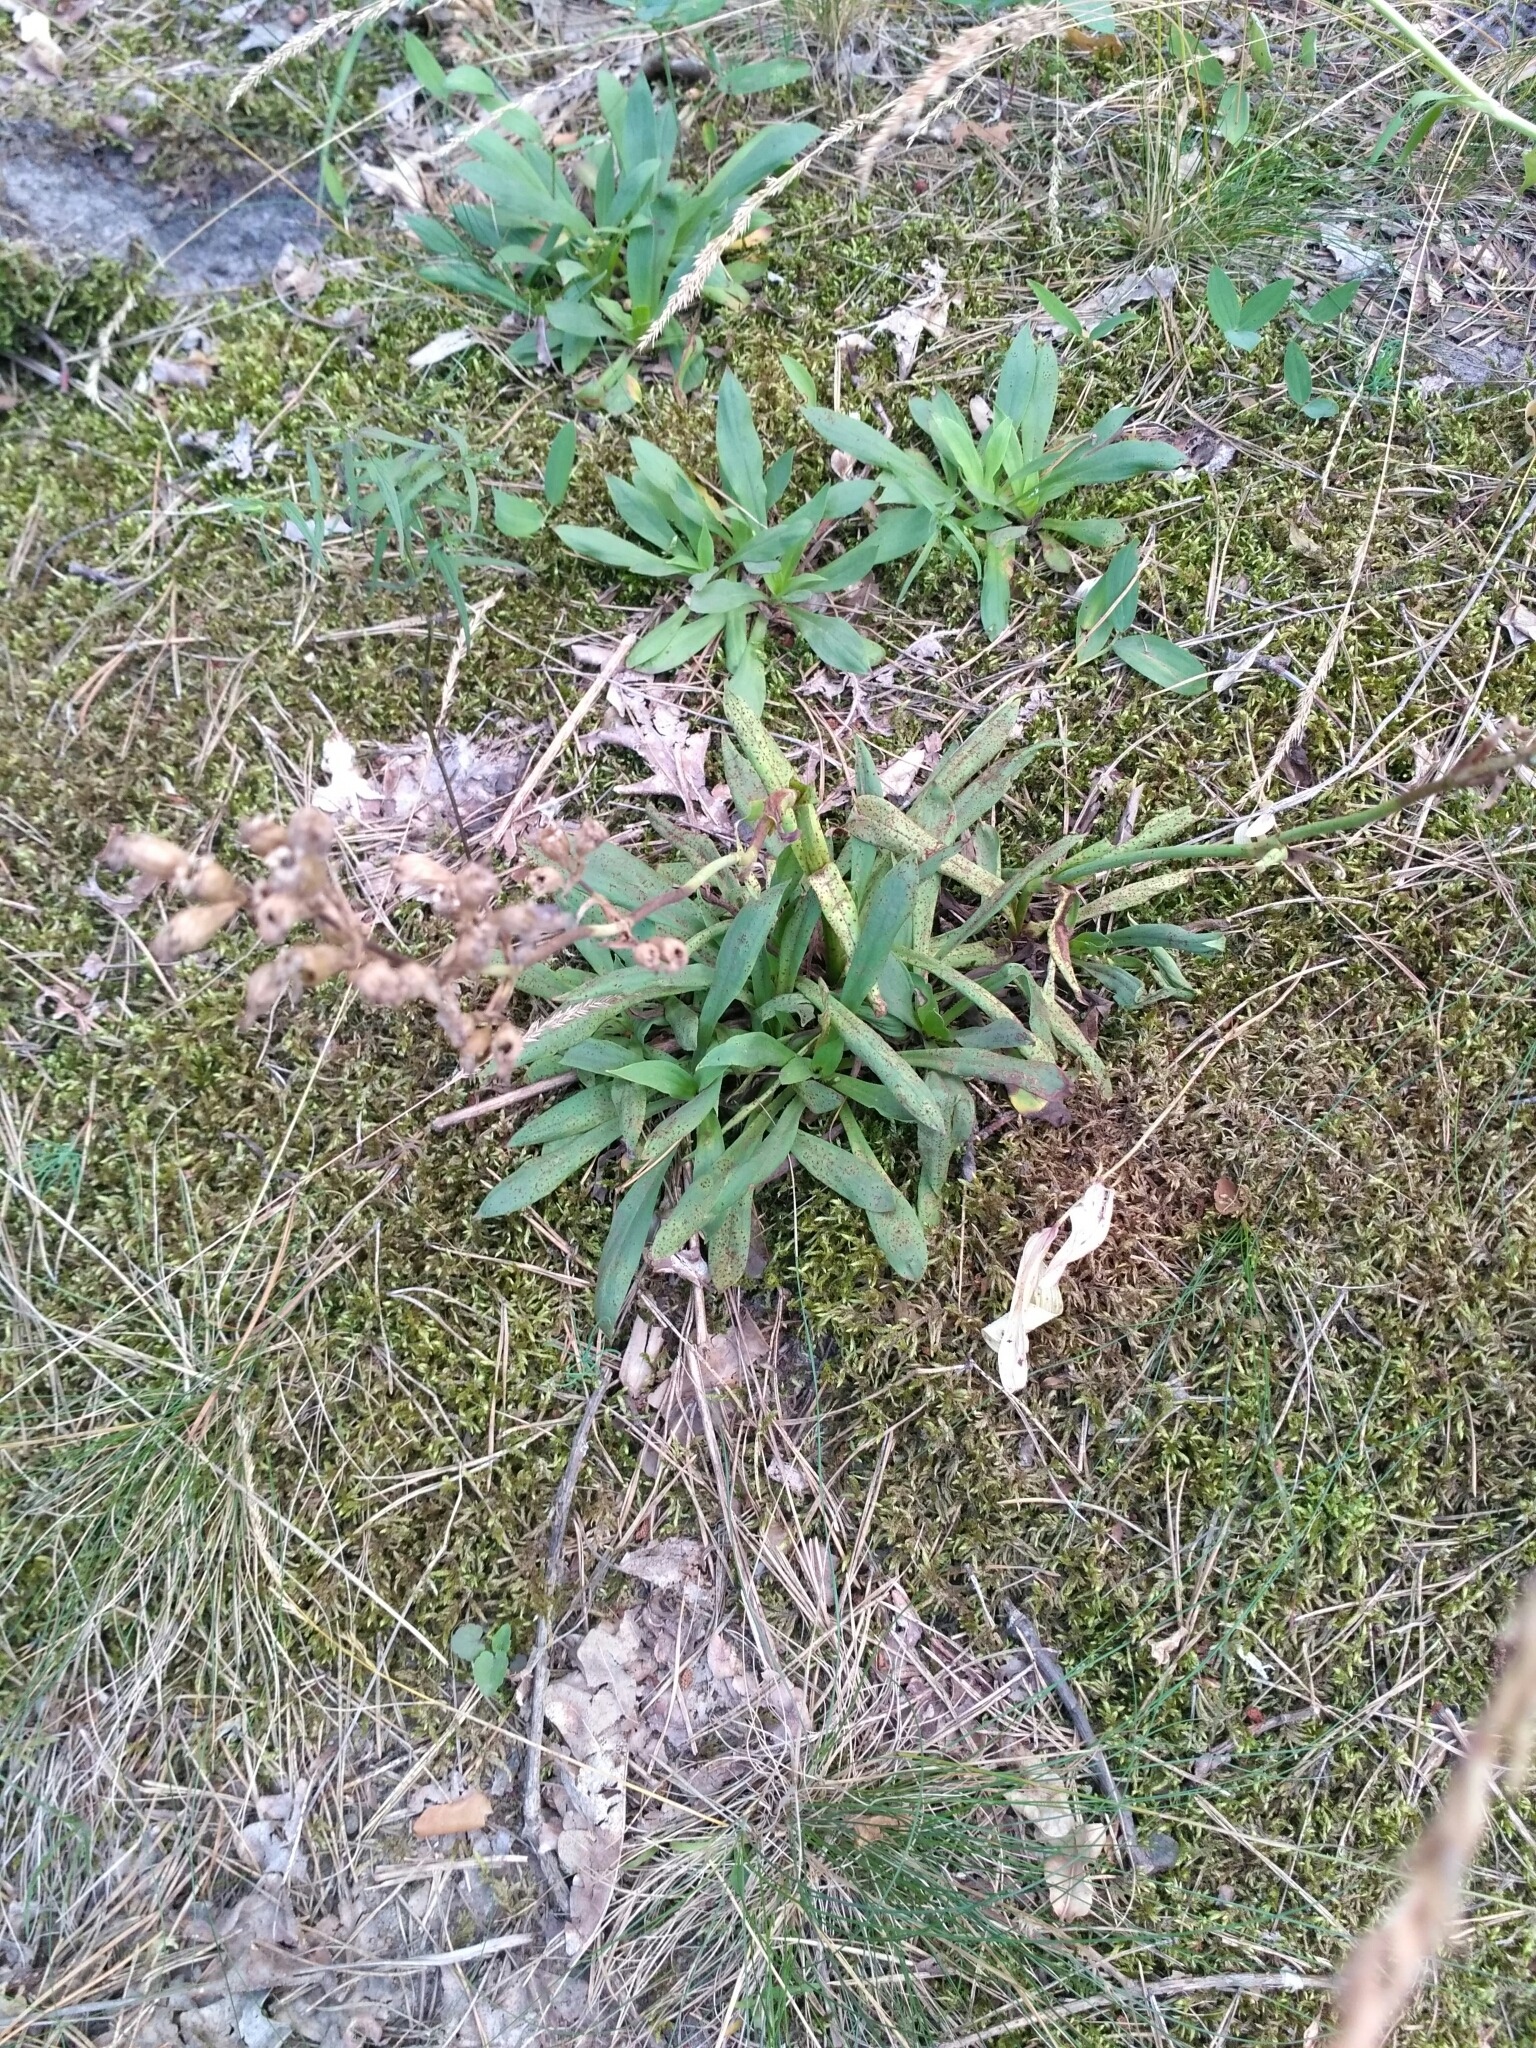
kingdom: Plantae
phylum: Tracheophyta
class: Magnoliopsida
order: Caryophyllales
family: Caryophyllaceae
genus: Viscaria
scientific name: Viscaria vulgaris
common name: Clammy campion
